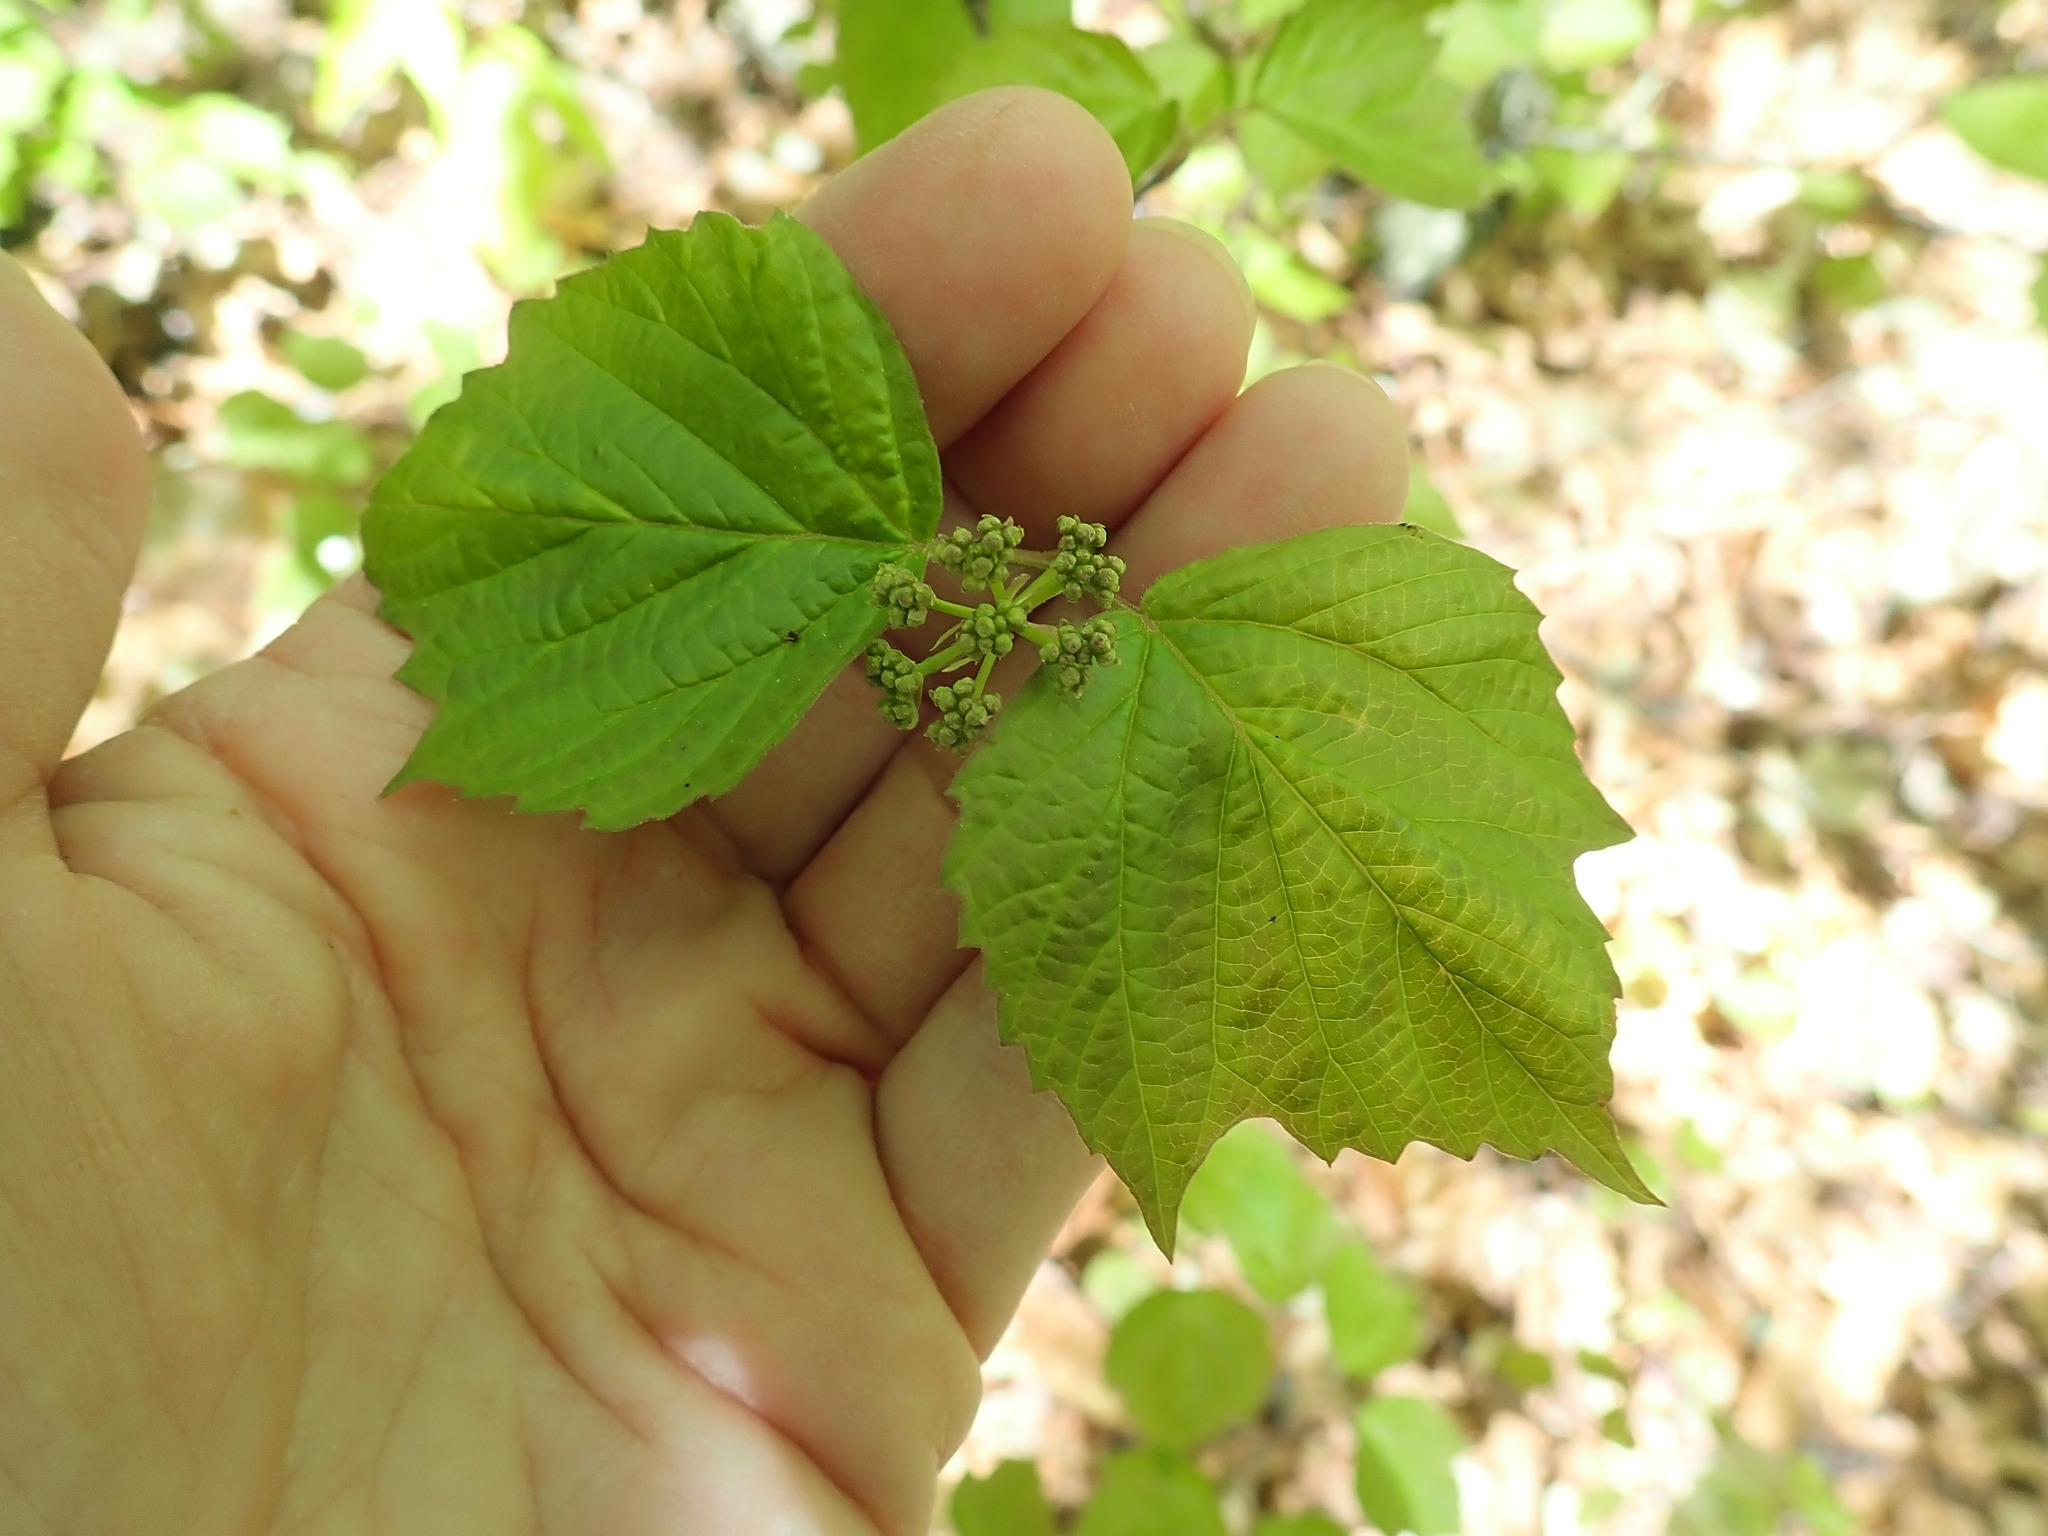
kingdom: Plantae
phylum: Tracheophyta
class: Magnoliopsida
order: Dipsacales
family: Viburnaceae
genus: Viburnum
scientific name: Viburnum acerifolium
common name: Dockmackie
